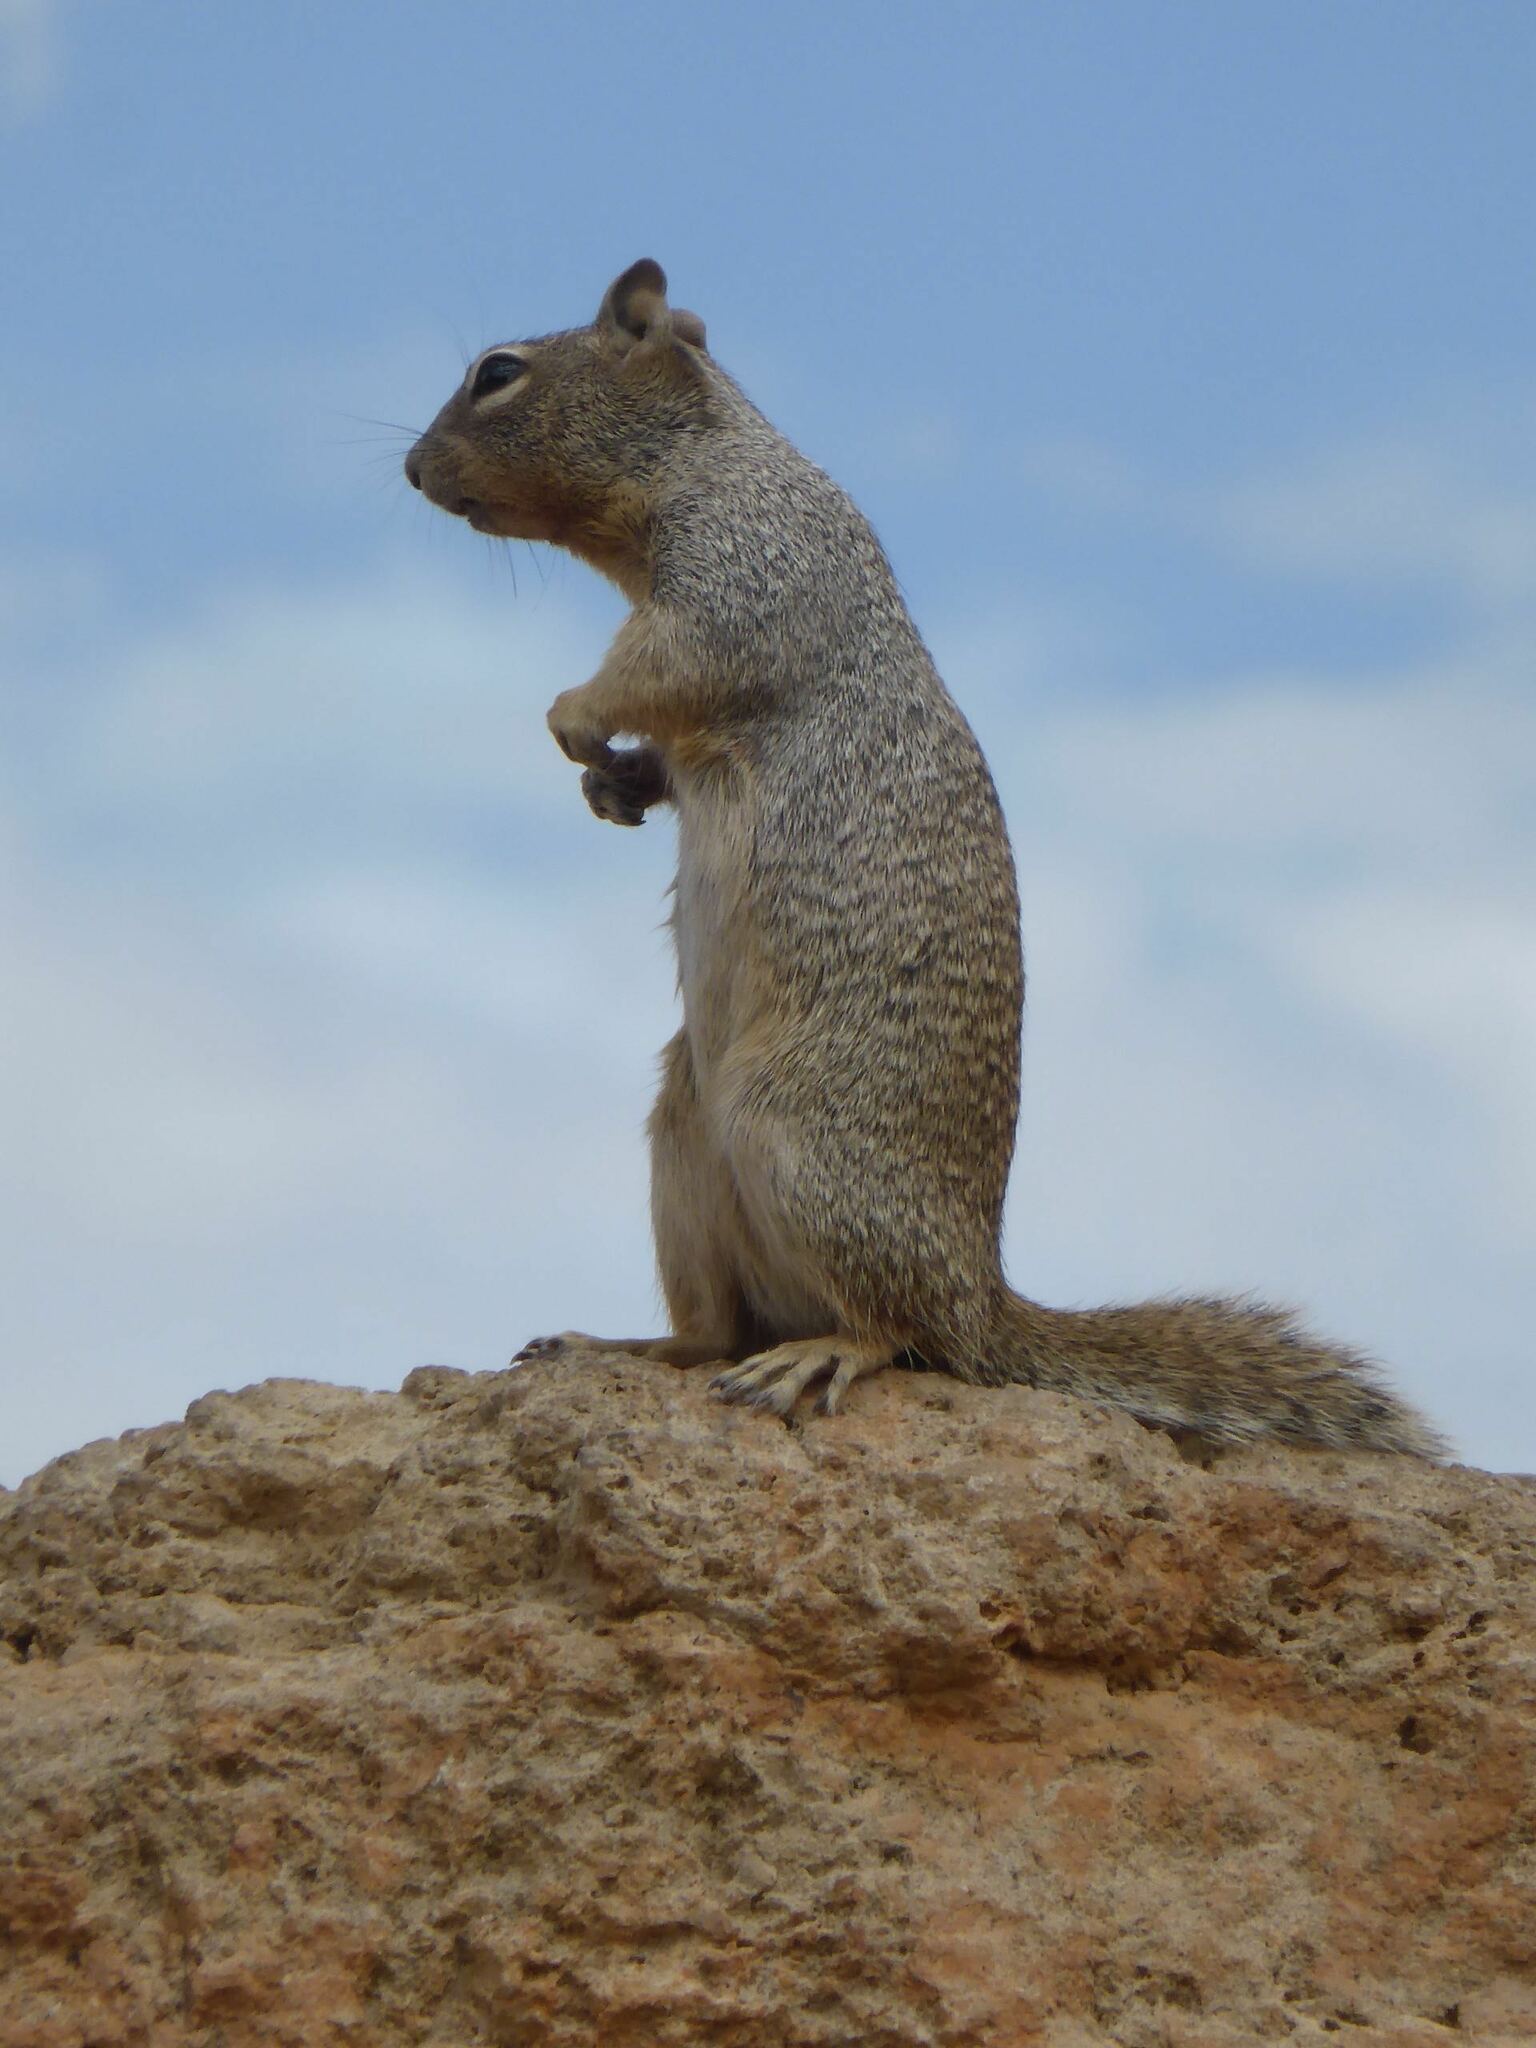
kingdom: Animalia
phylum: Chordata
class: Mammalia
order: Rodentia
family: Sciuridae
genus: Otospermophilus
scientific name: Otospermophilus variegatus
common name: Rock squirrel
